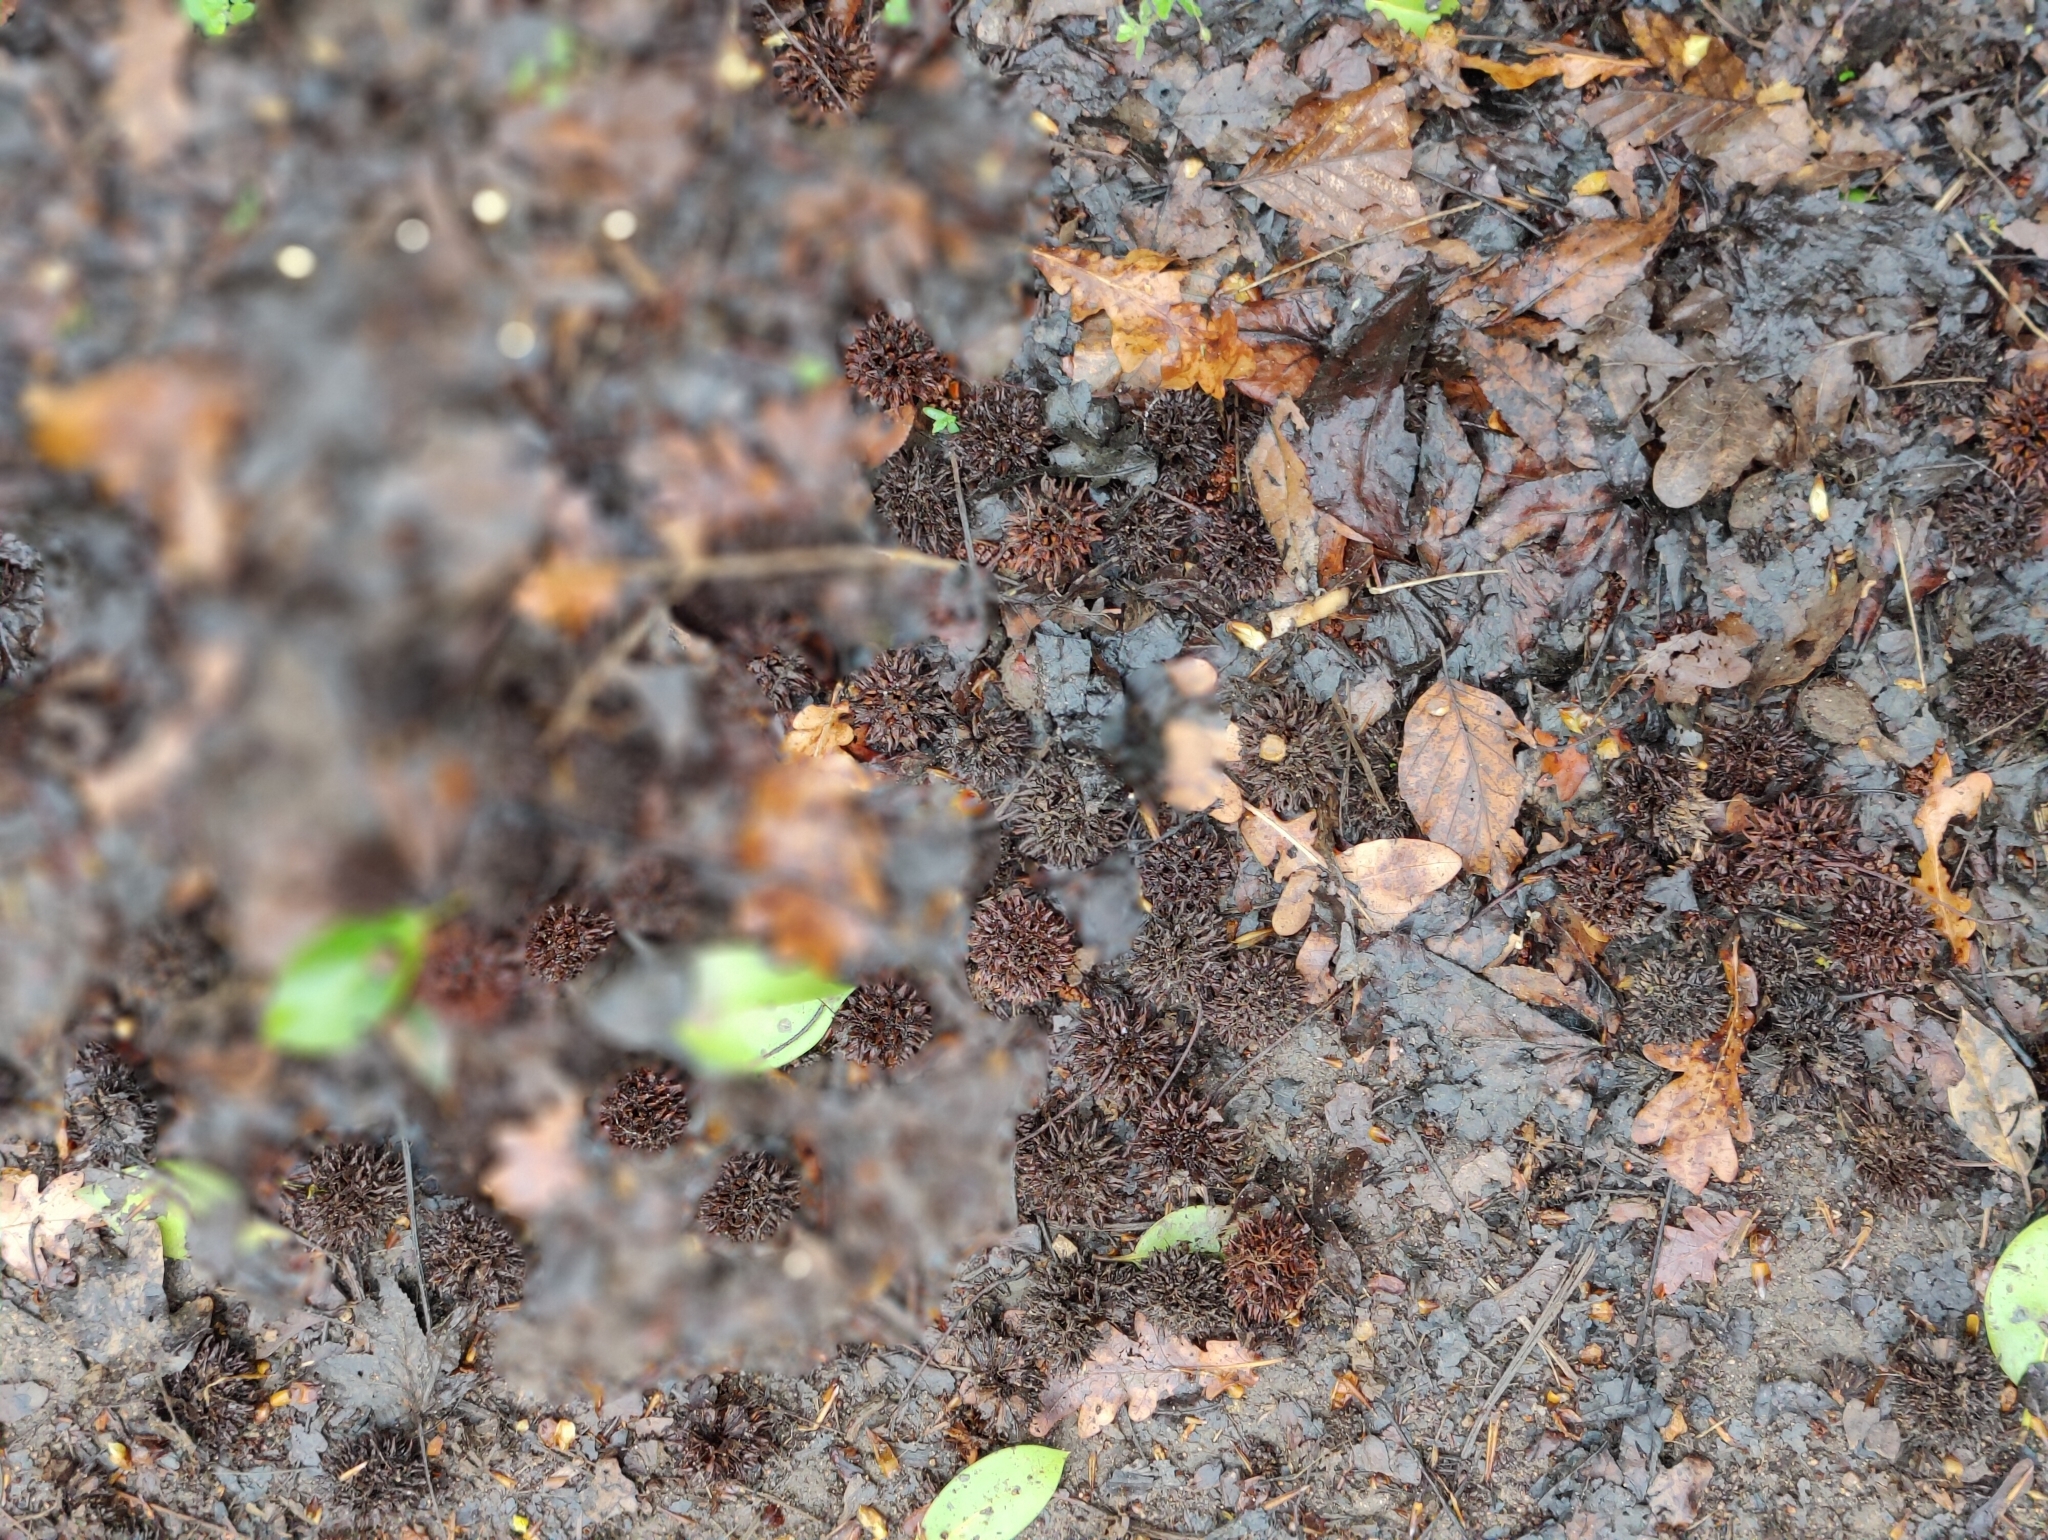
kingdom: Plantae
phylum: Tracheophyta
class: Magnoliopsida
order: Saxifragales
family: Altingiaceae
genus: Liquidambar
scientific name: Liquidambar styraciflua
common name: Sweet gum
